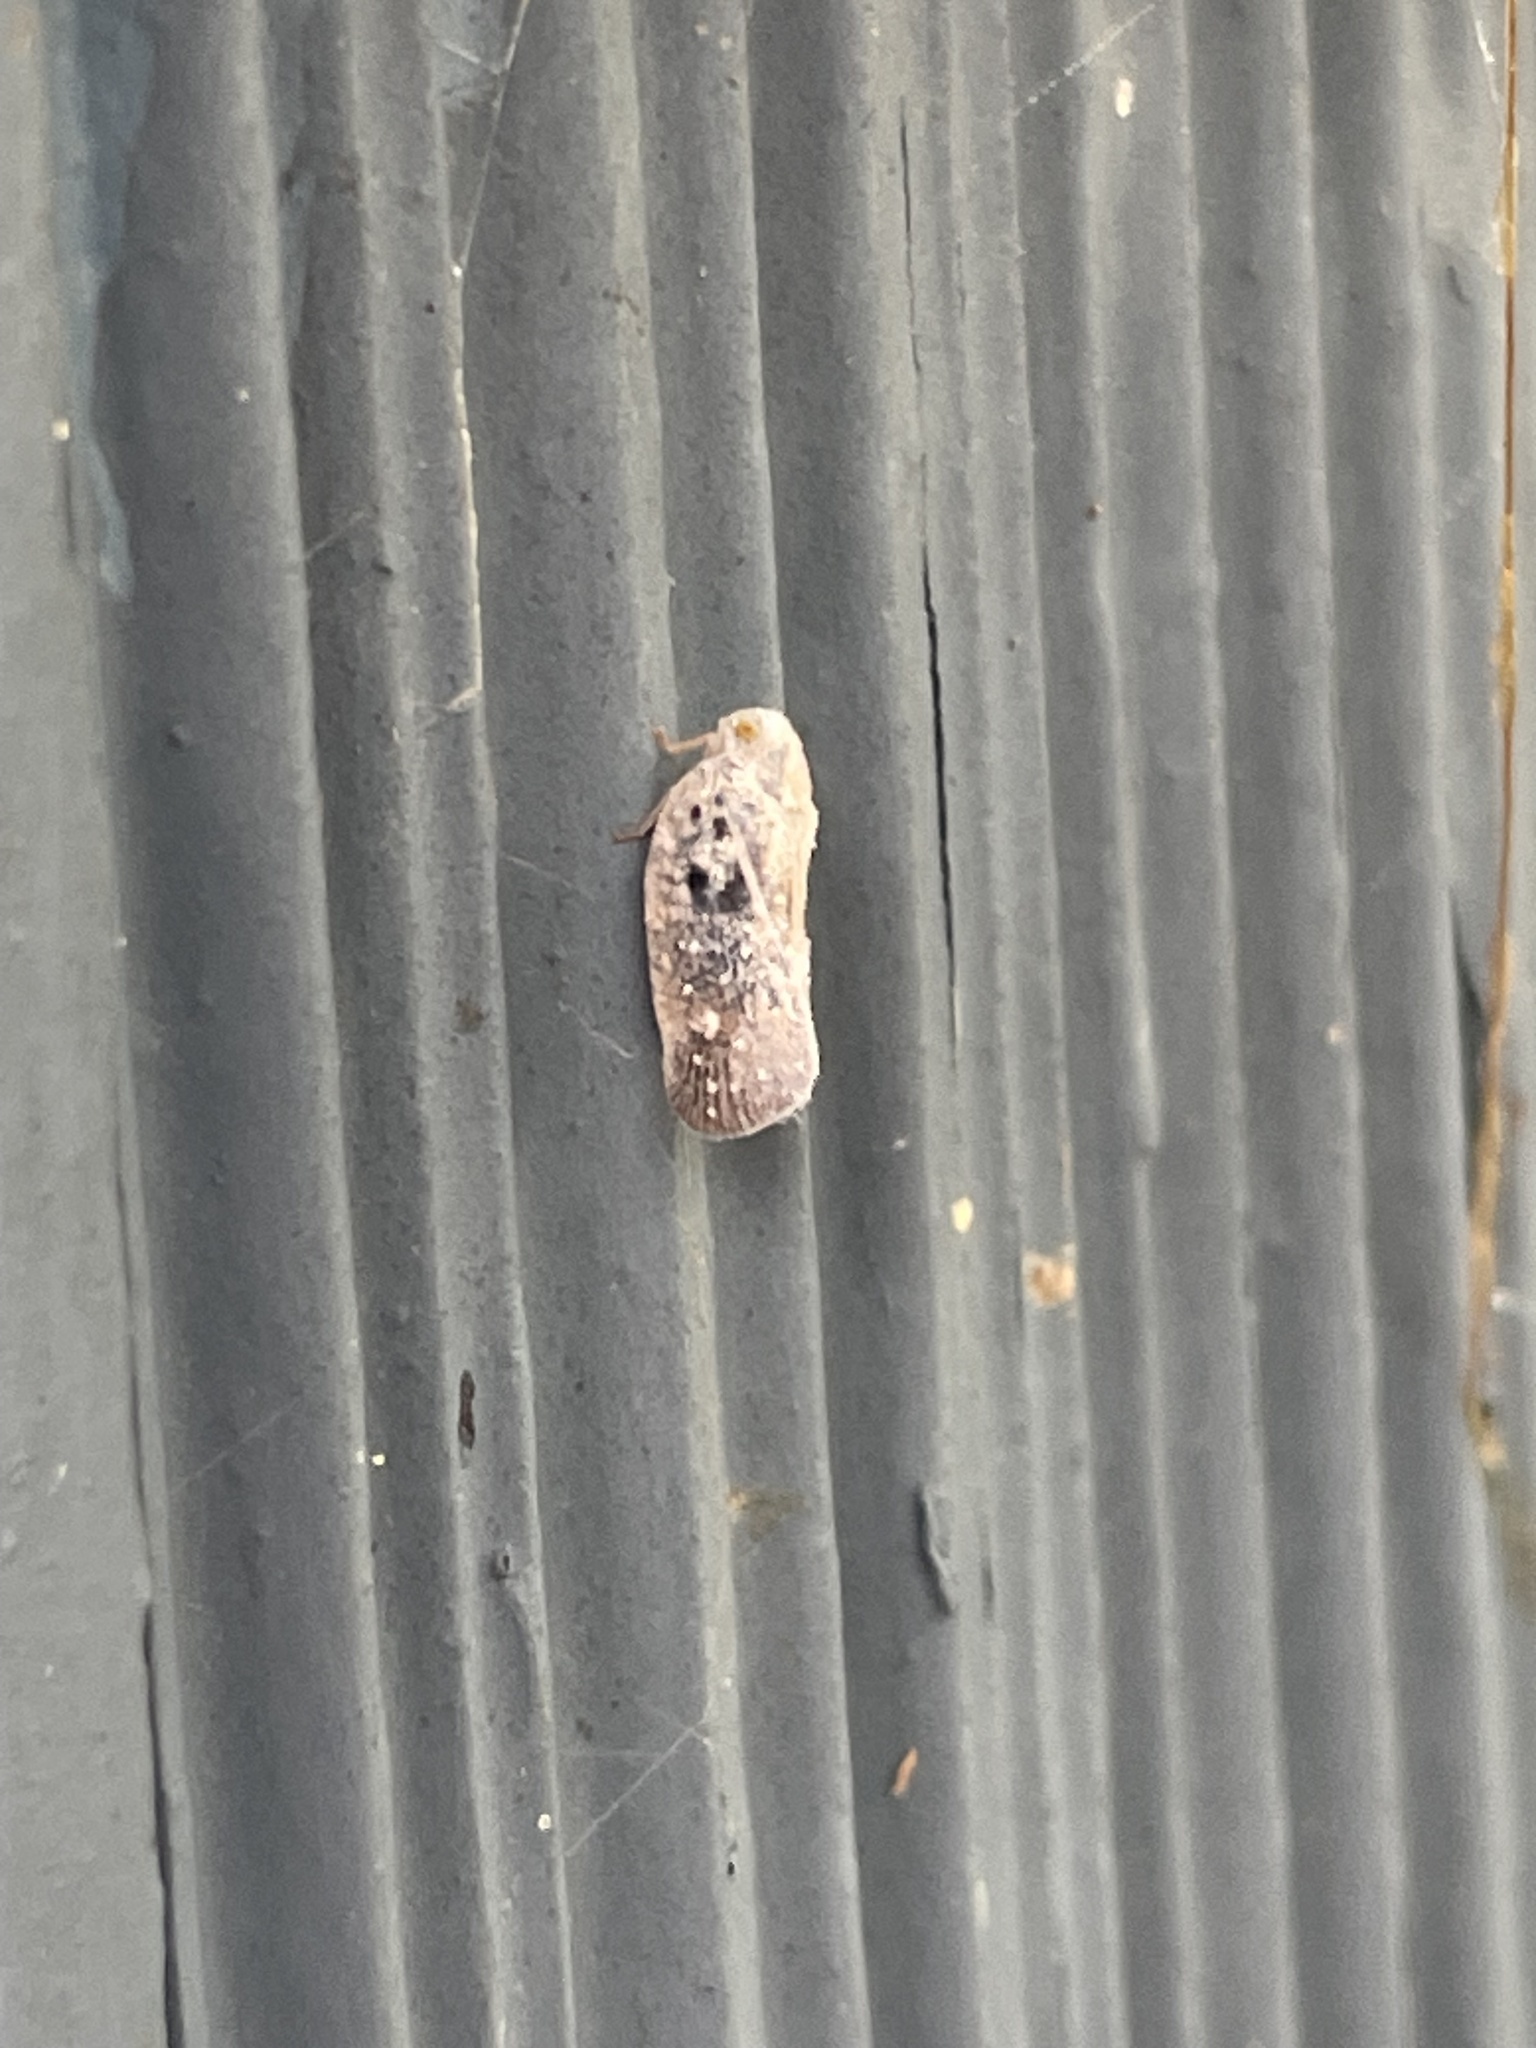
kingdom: Animalia
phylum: Arthropoda
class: Insecta
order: Hemiptera
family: Flatidae
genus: Metcalfa
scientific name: Metcalfa pruinosa
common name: Citrus flatid planthopper
